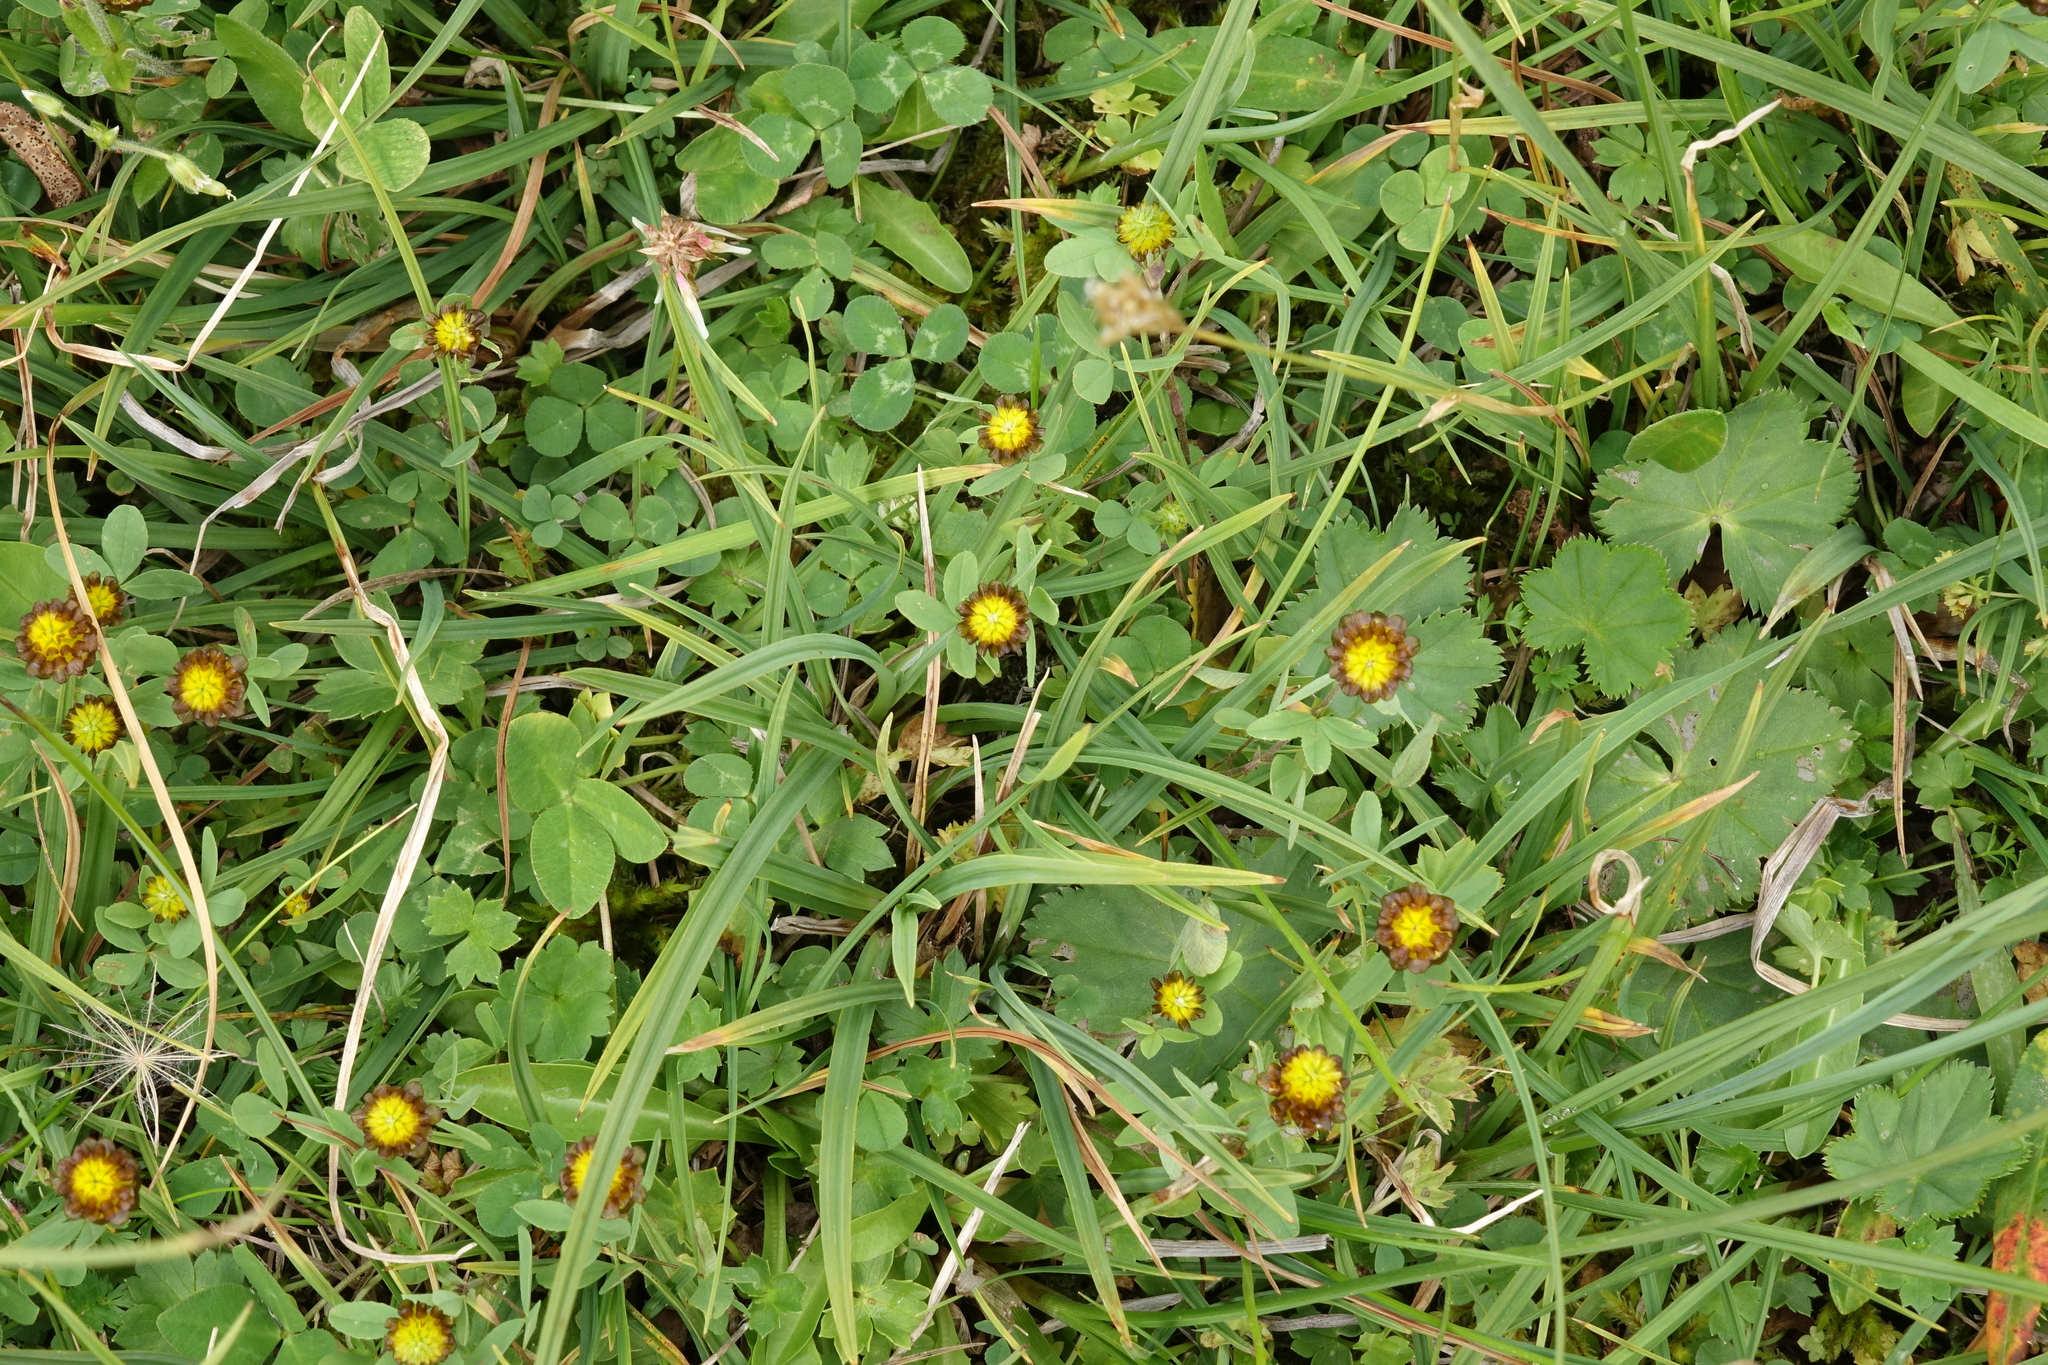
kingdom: Plantae
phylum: Tracheophyta
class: Magnoliopsida
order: Fabales
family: Fabaceae
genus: Trifolium
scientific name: Trifolium spadiceum
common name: Brown moor clover
